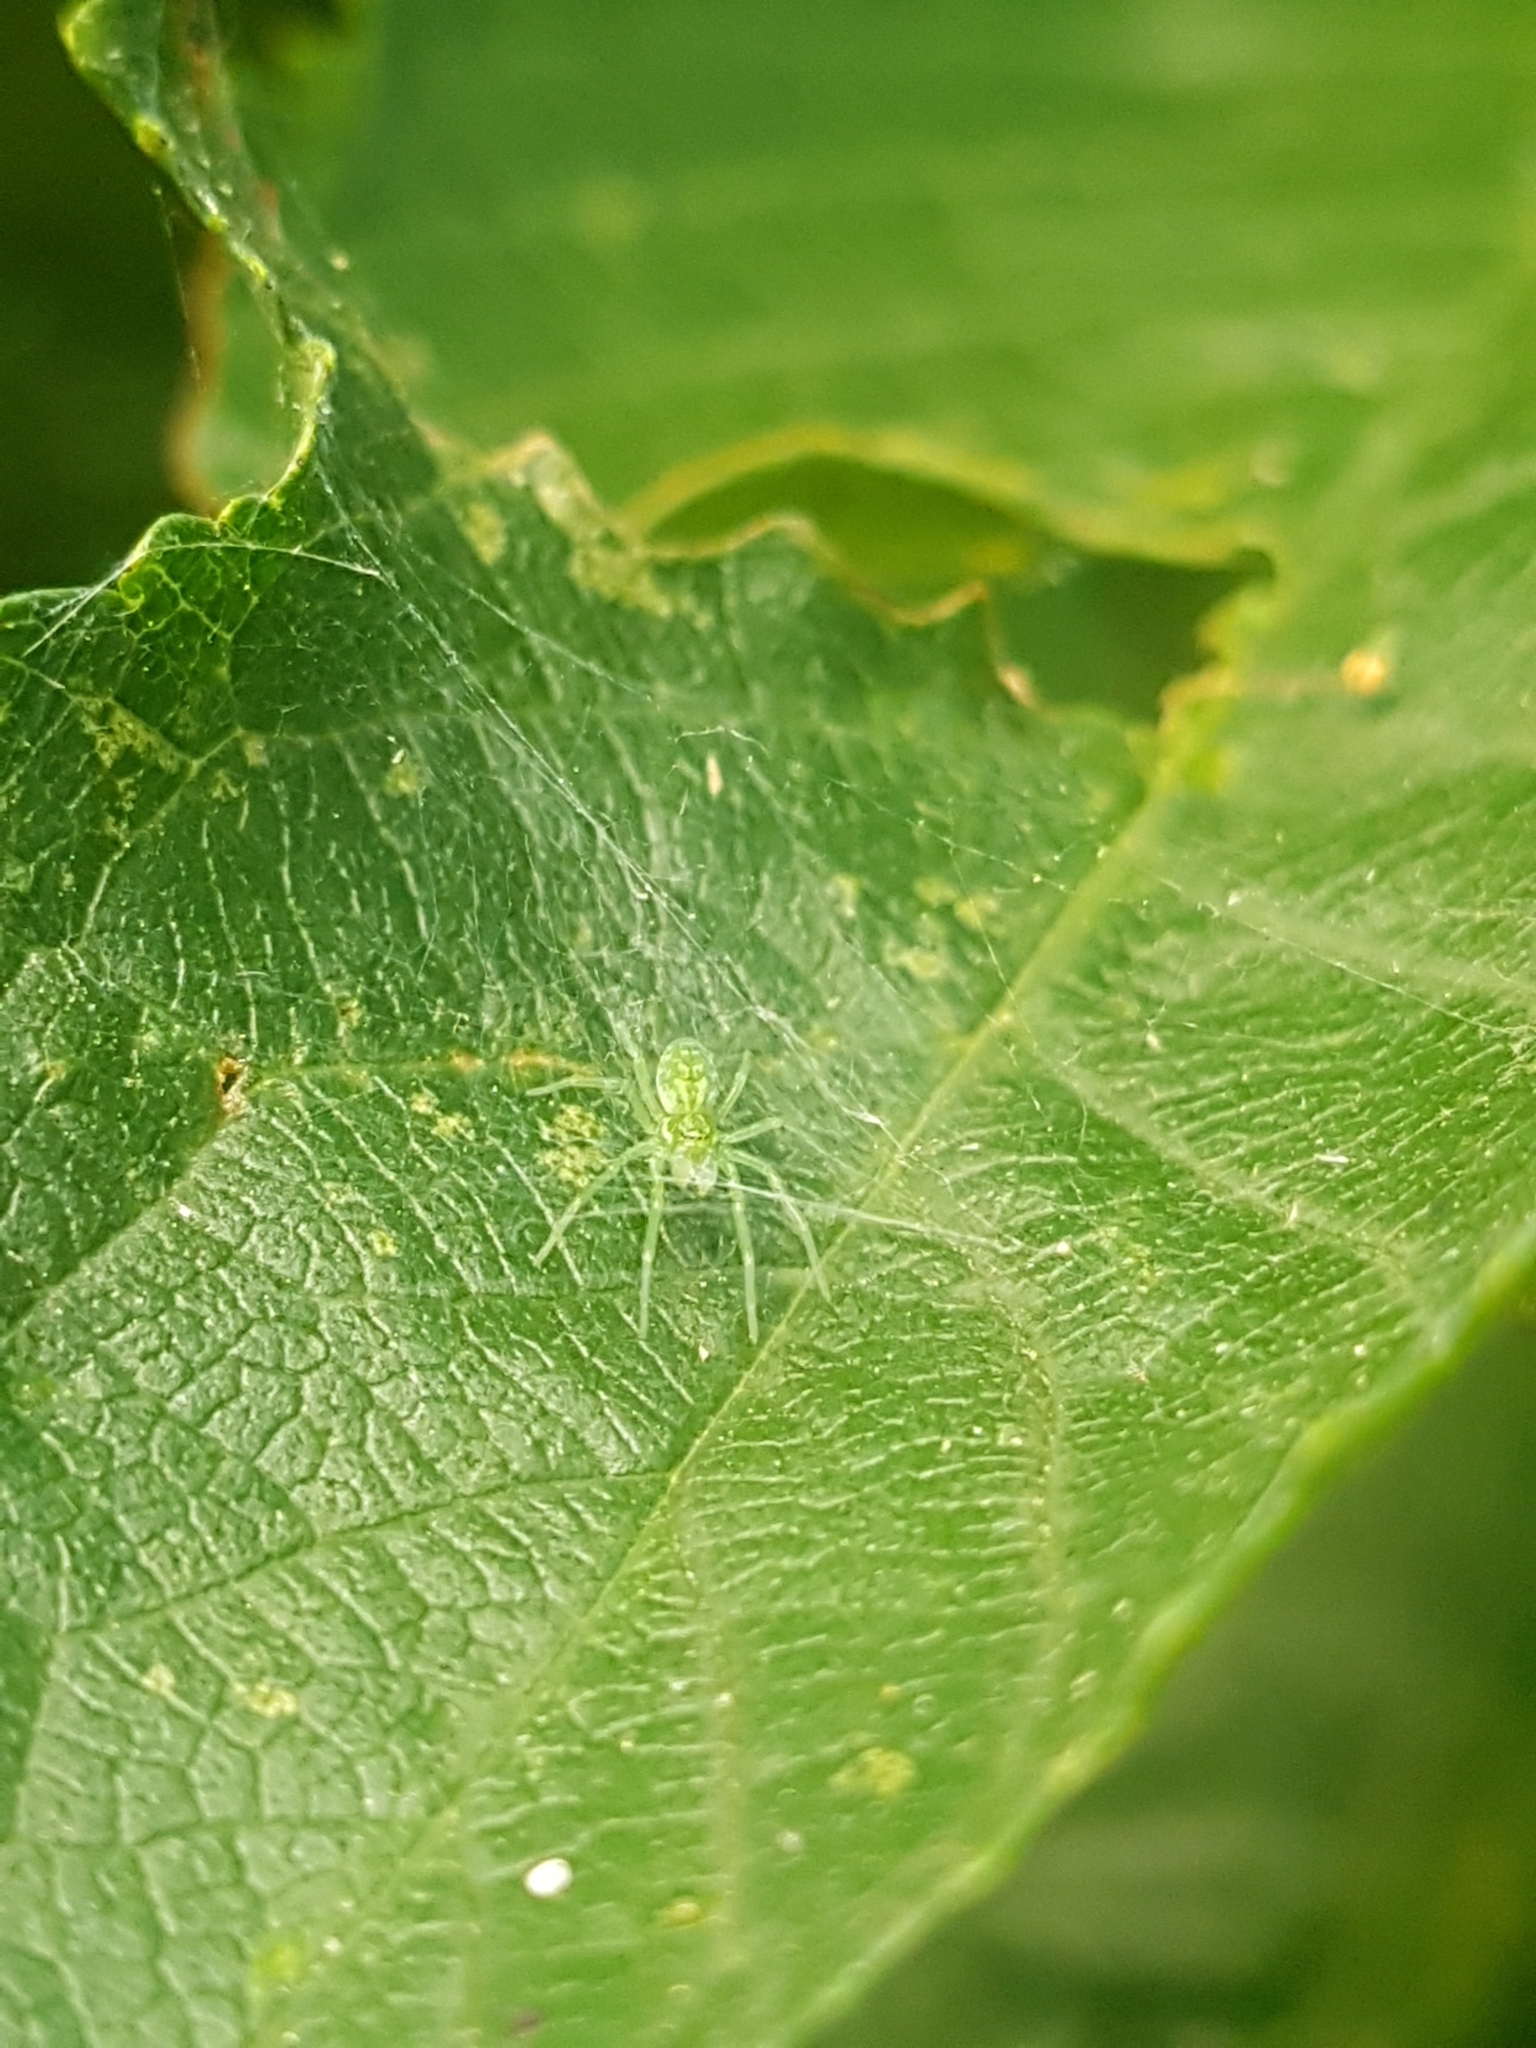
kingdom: Animalia
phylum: Arthropoda
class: Arachnida
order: Araneae
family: Dictynidae
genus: Nigma
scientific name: Nigma walckenaeri
